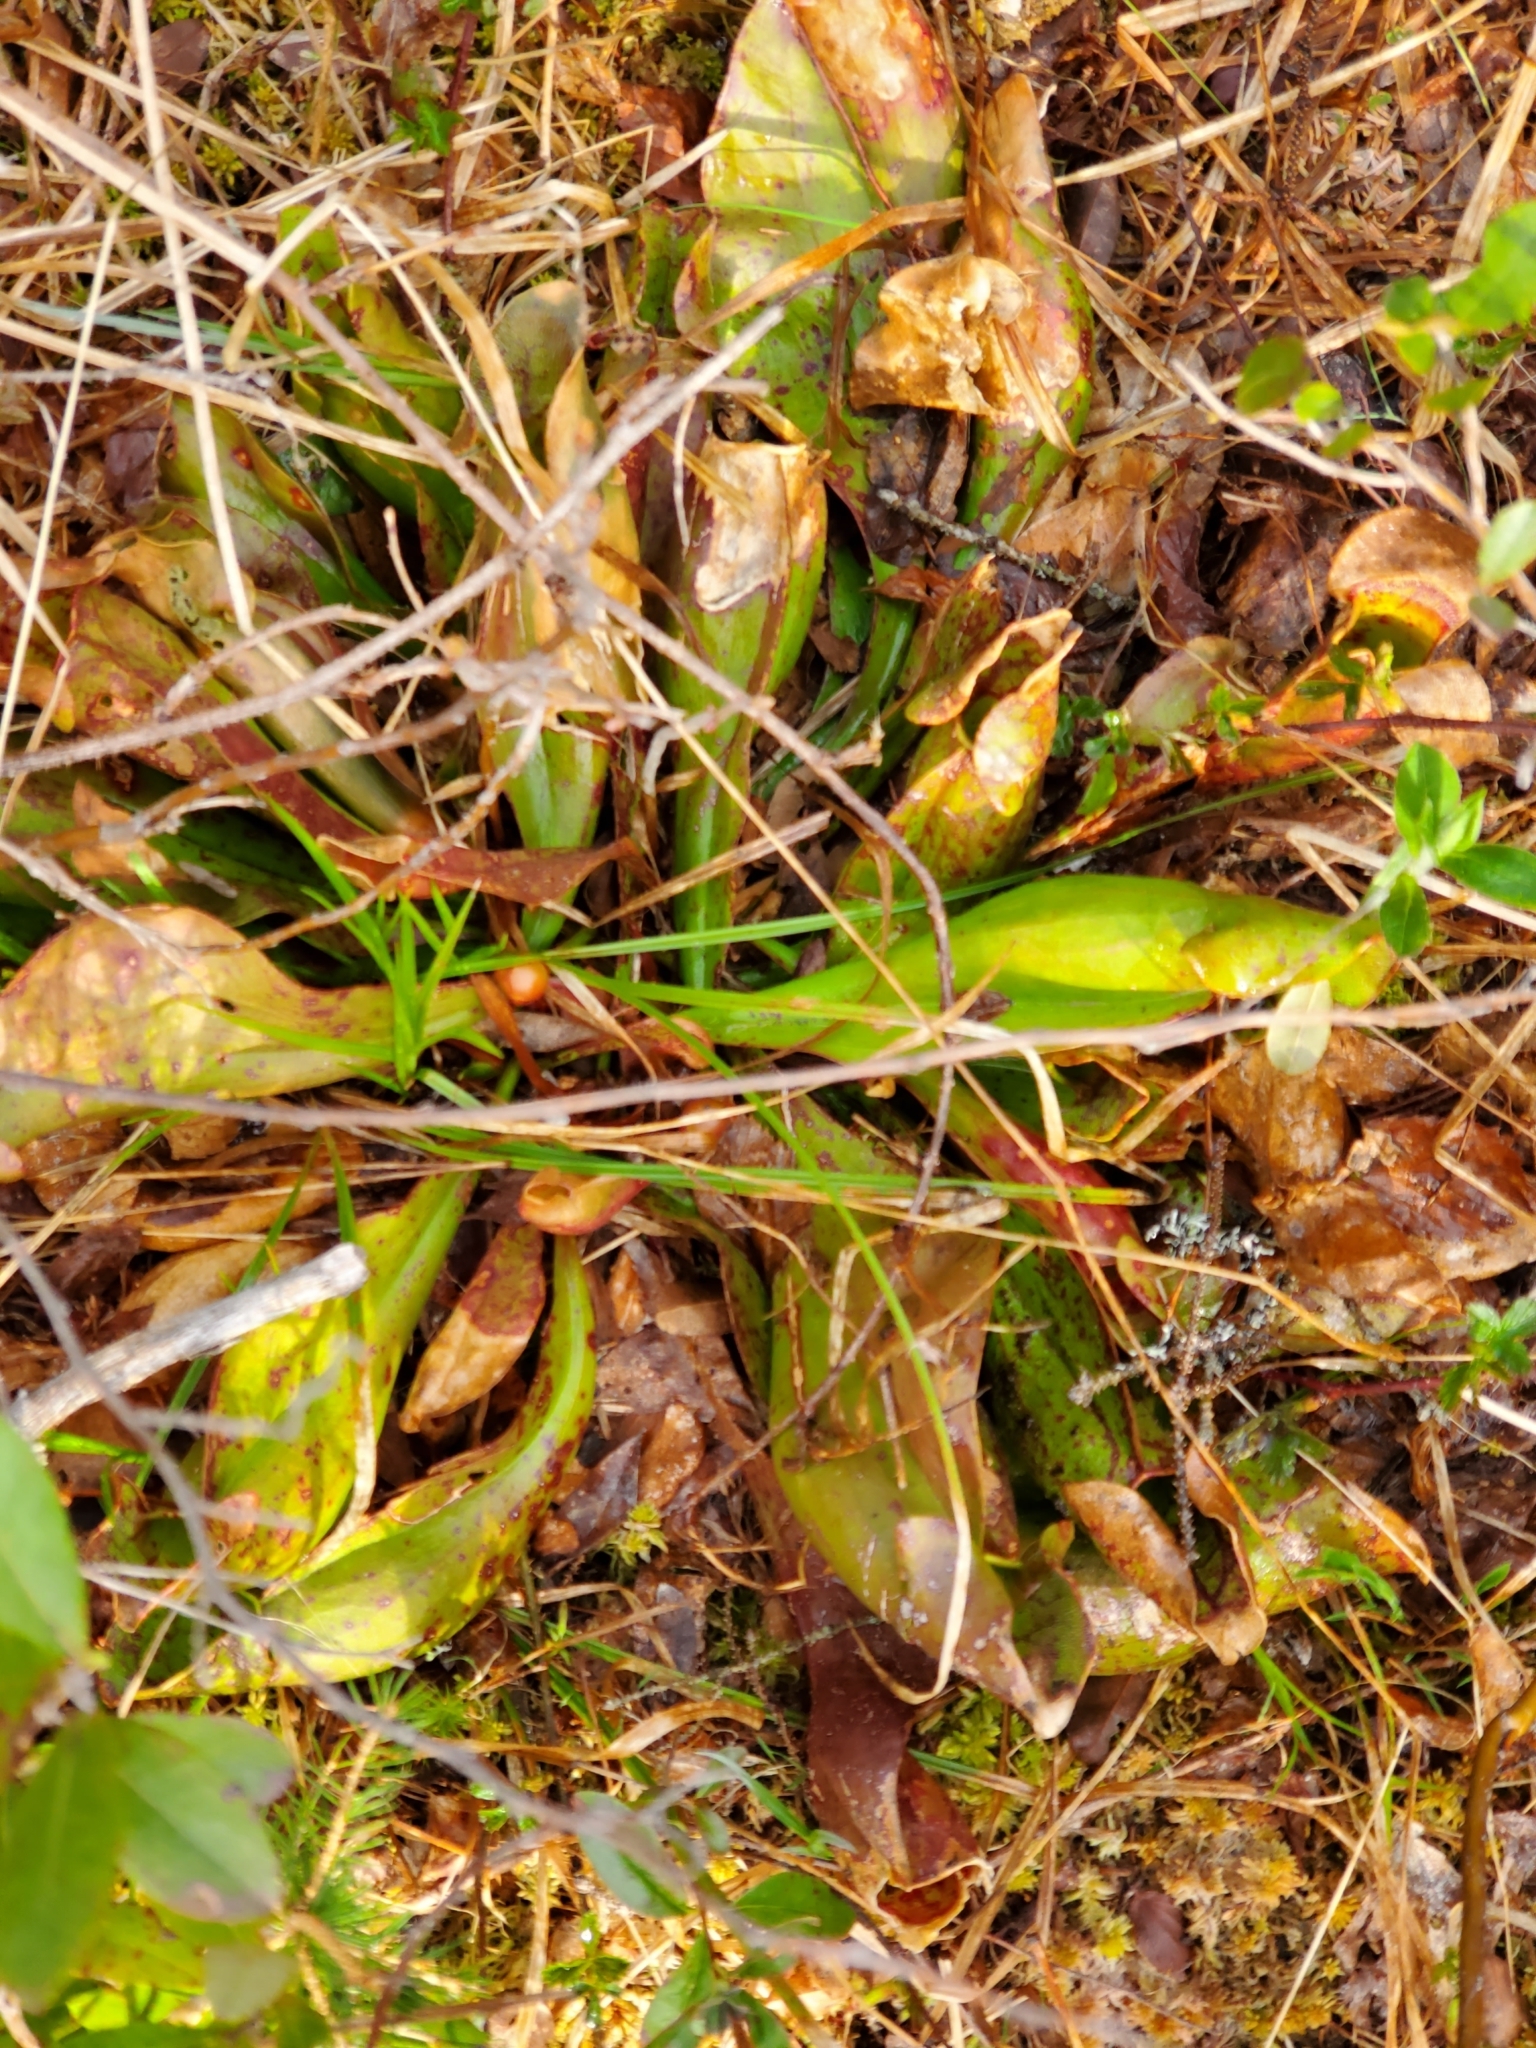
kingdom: Plantae
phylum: Tracheophyta
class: Magnoliopsida
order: Ericales
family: Sarraceniaceae
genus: Sarracenia
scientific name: Sarracenia purpurea
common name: Pitcherplant
